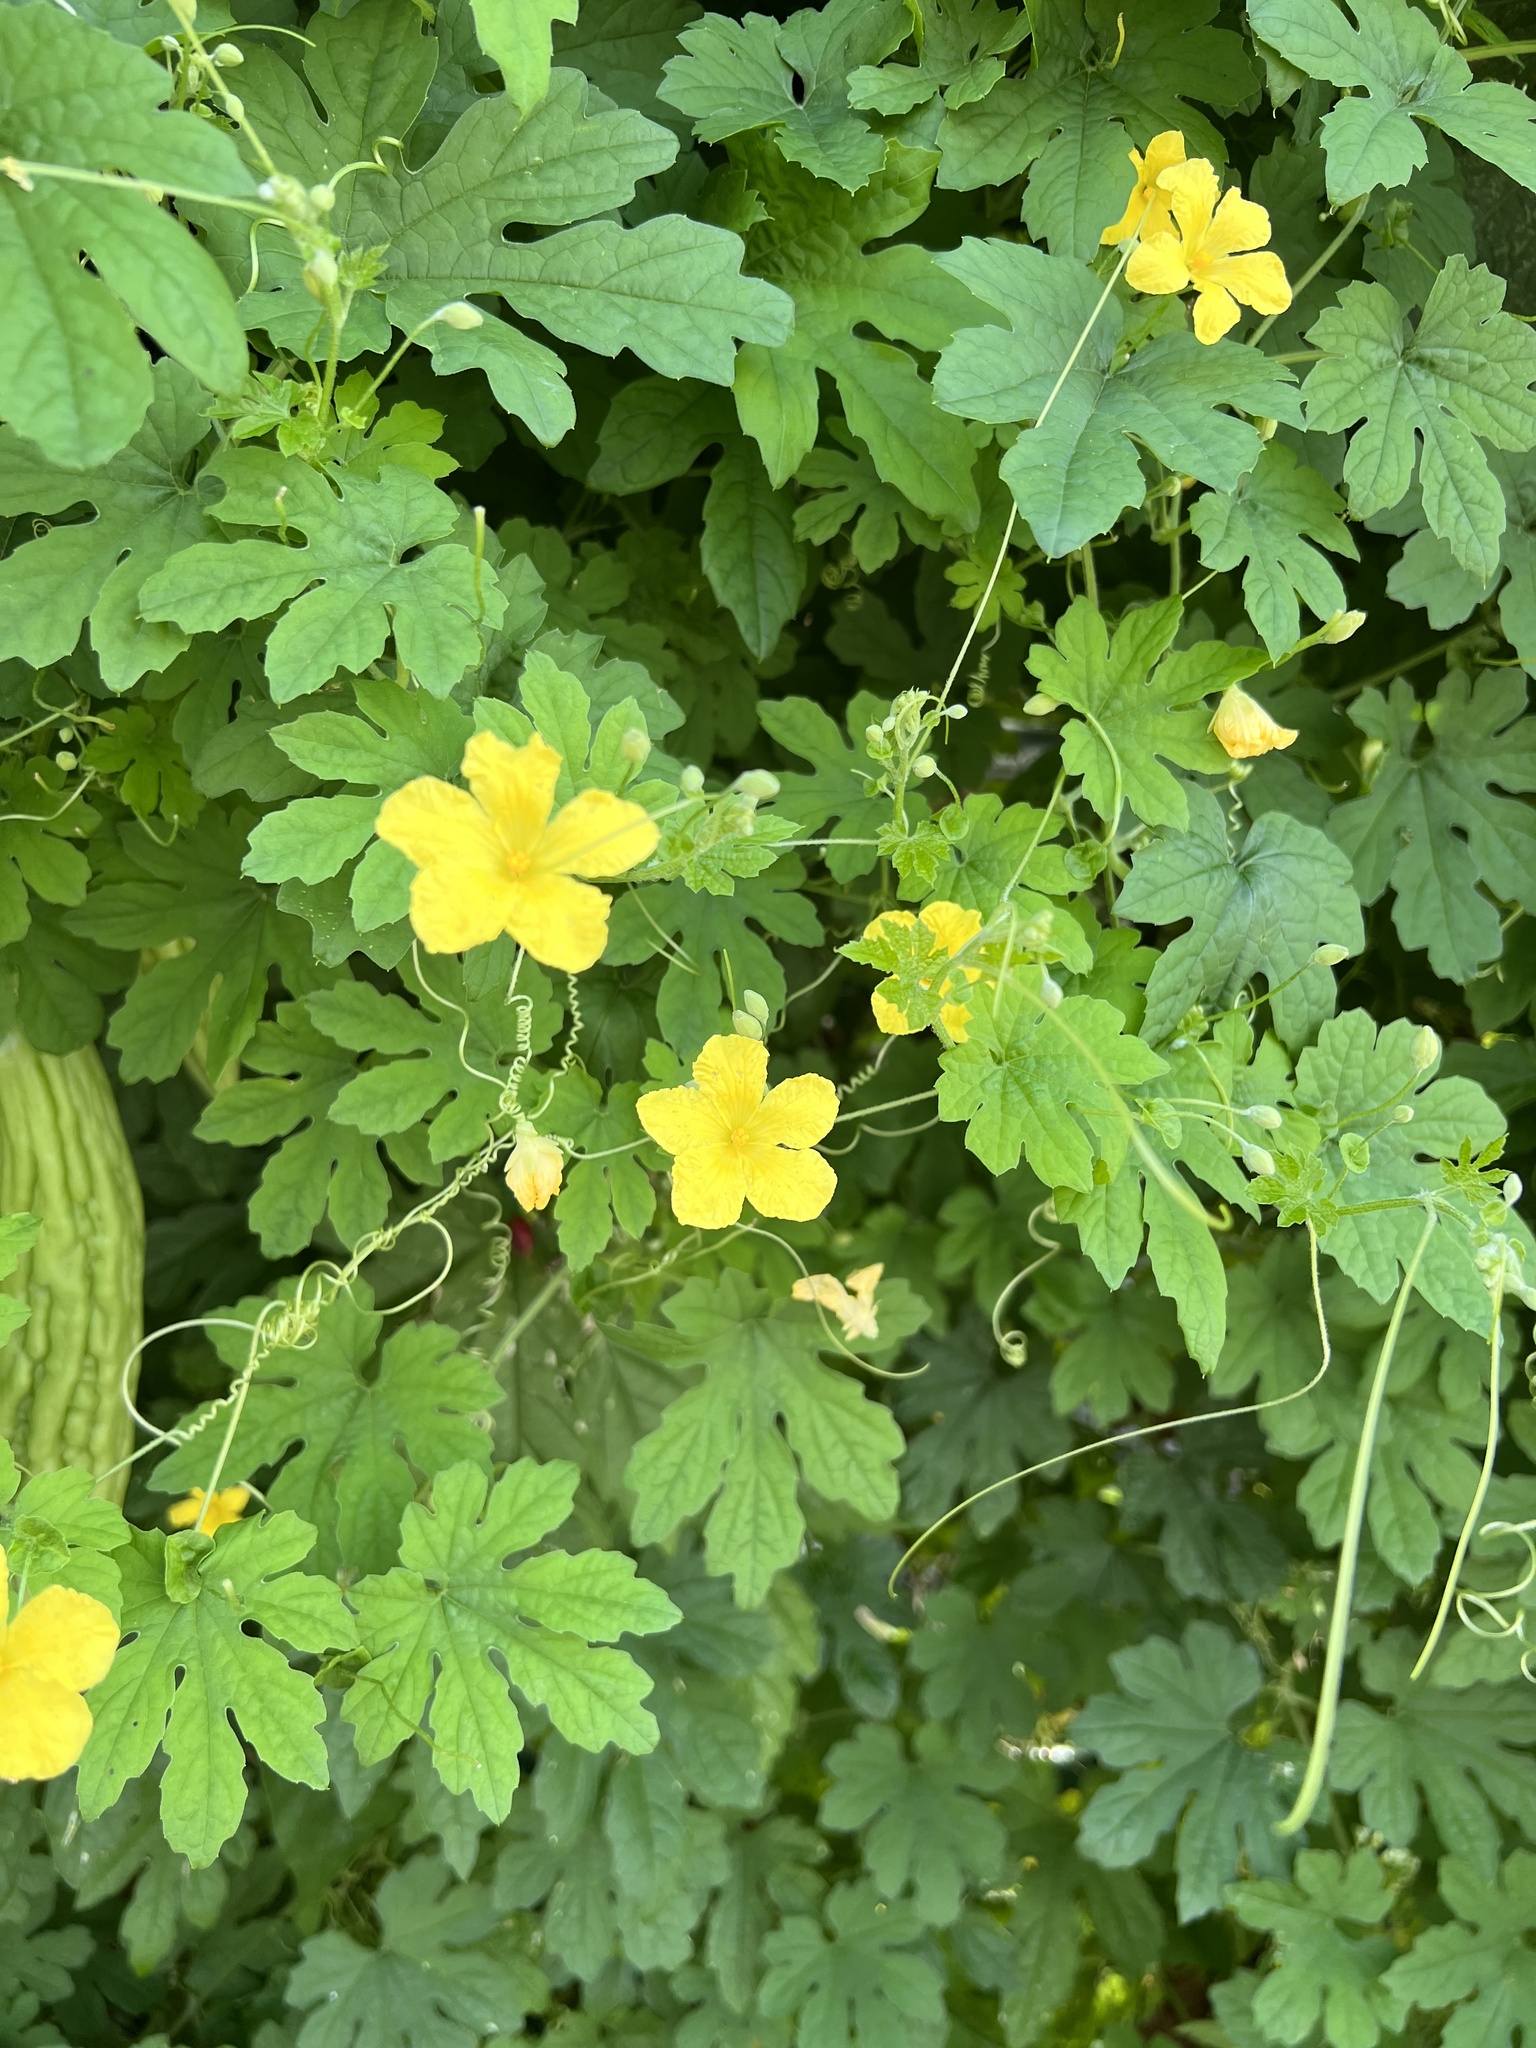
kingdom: Plantae
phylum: Tracheophyta
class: Magnoliopsida
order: Cucurbitales
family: Cucurbitaceae
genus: Momordica
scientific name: Momordica charantia
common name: Balsampear
